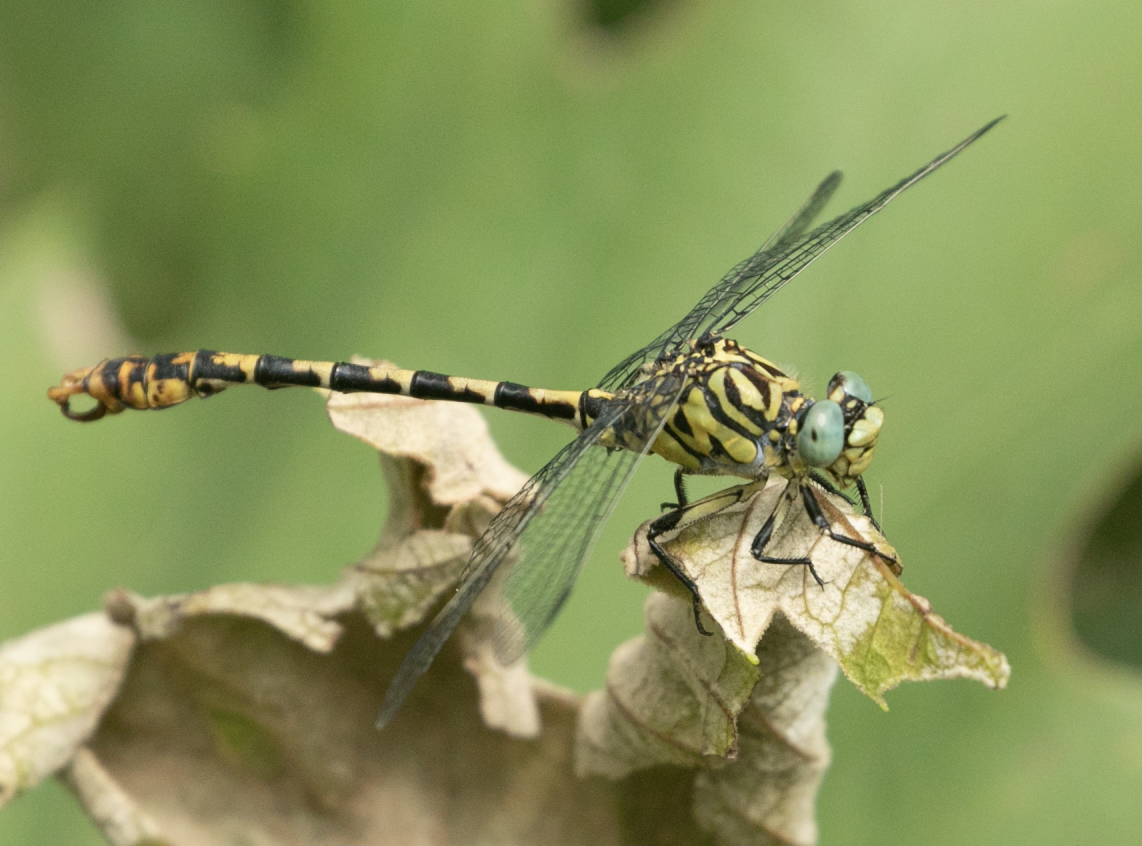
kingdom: Animalia
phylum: Arthropoda
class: Insecta
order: Odonata
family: Gomphidae
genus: Onychogomphus
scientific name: Onychogomphus forcipatus
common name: Small pincertail
